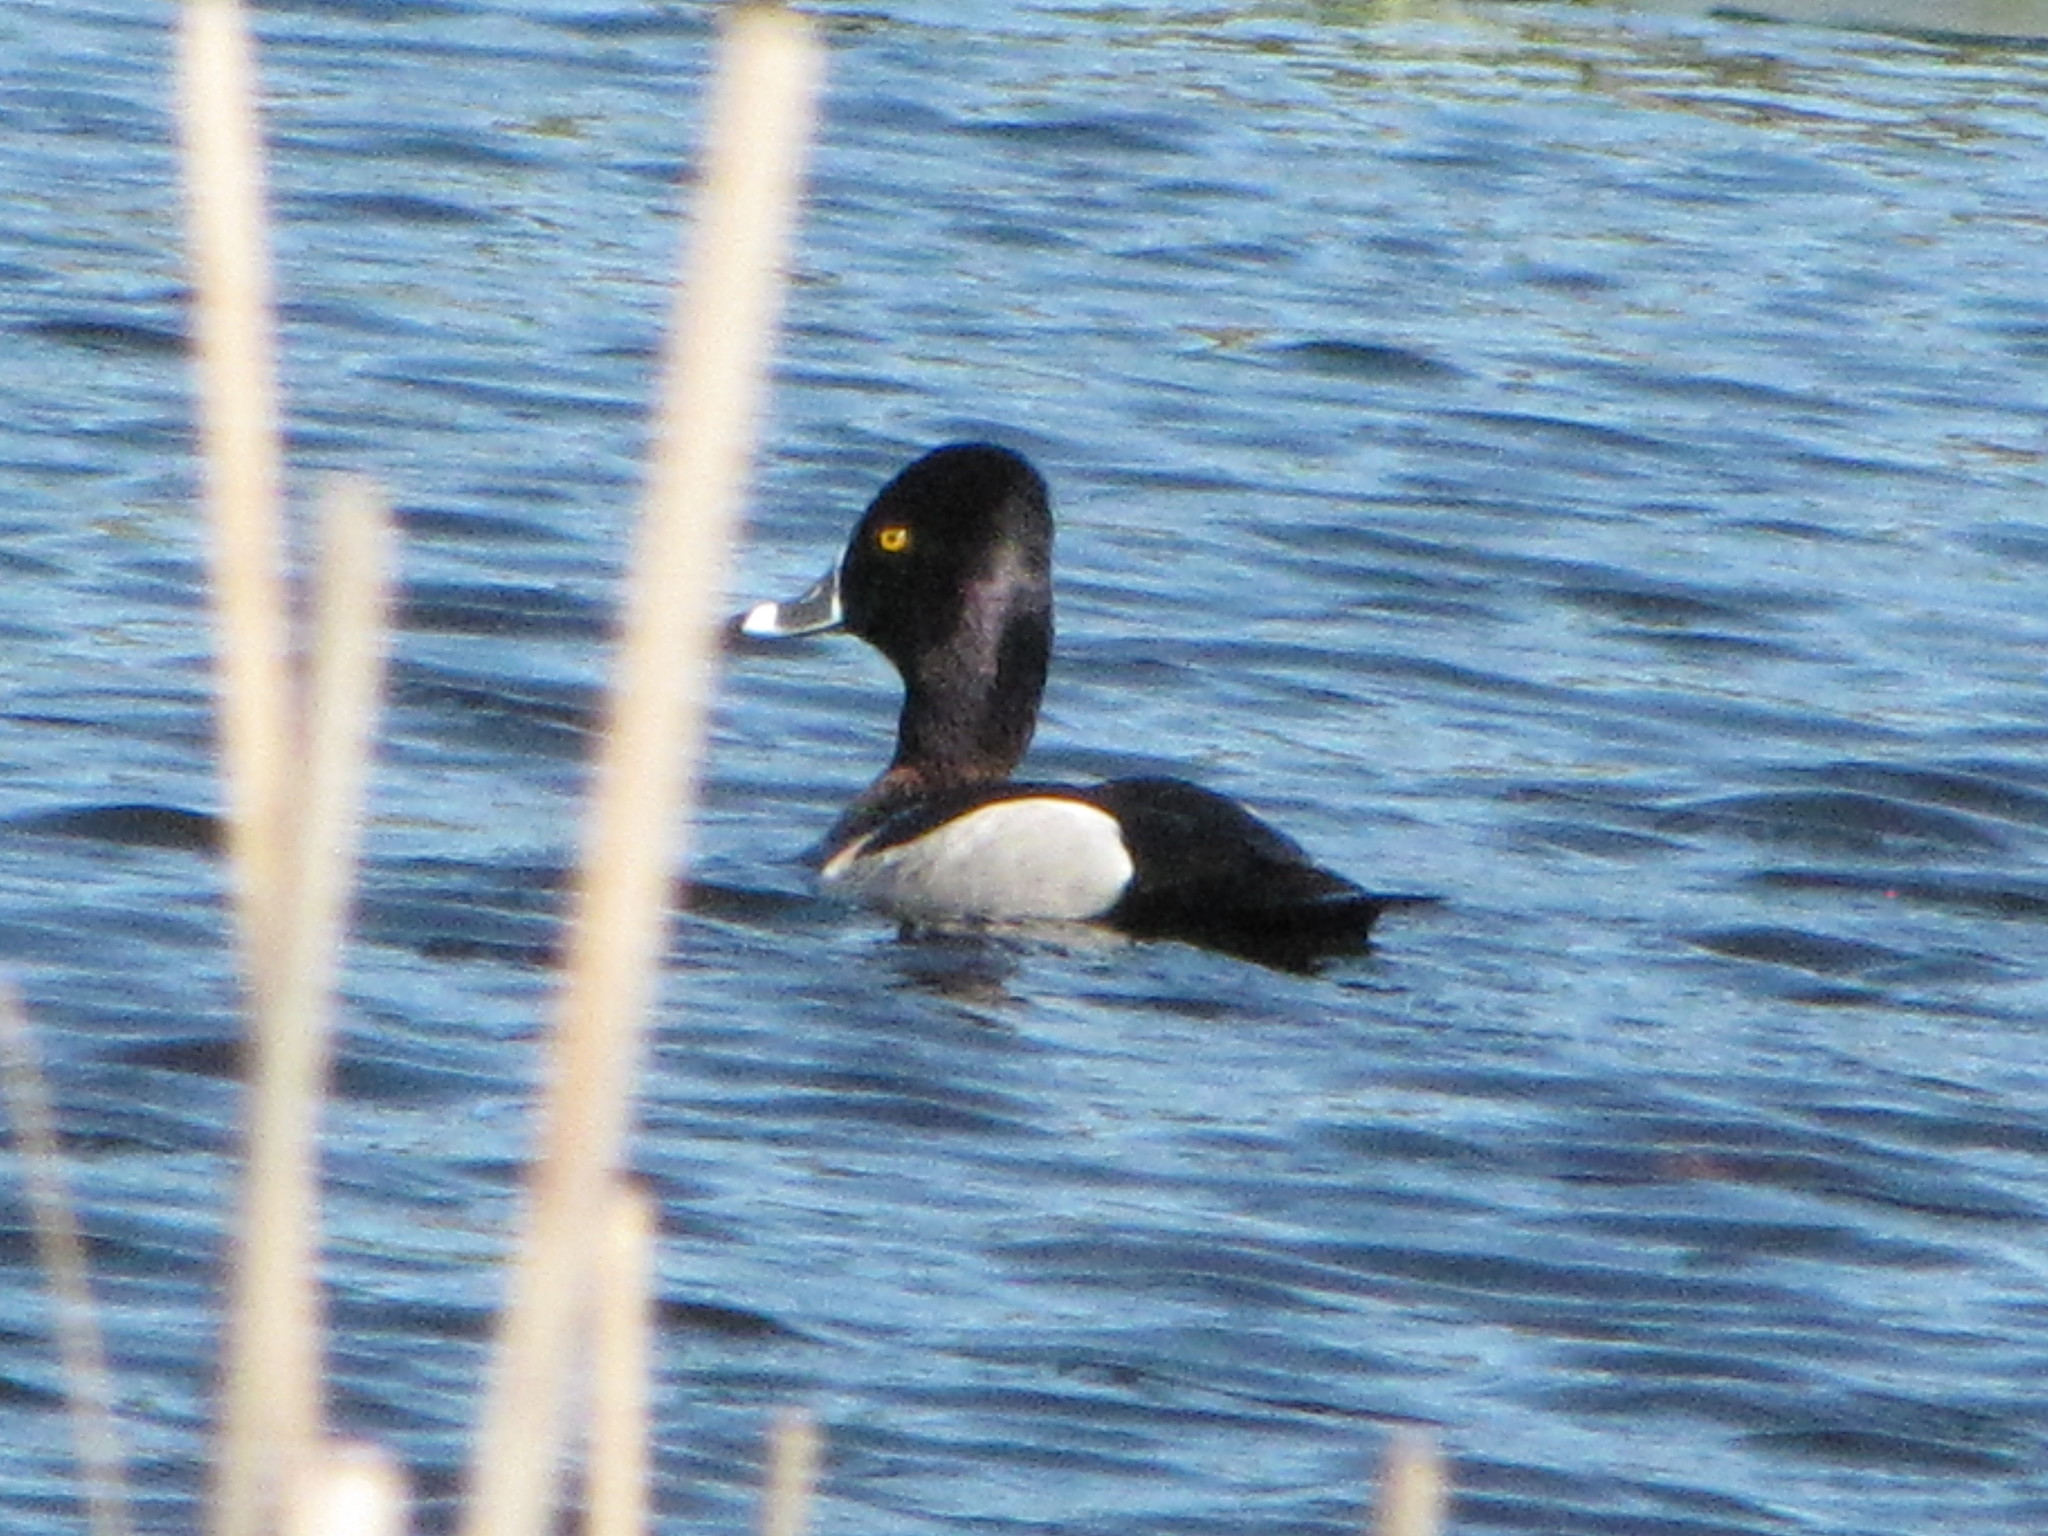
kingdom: Animalia
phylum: Chordata
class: Aves
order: Anseriformes
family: Anatidae
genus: Aythya
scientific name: Aythya collaris
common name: Ring-necked duck
